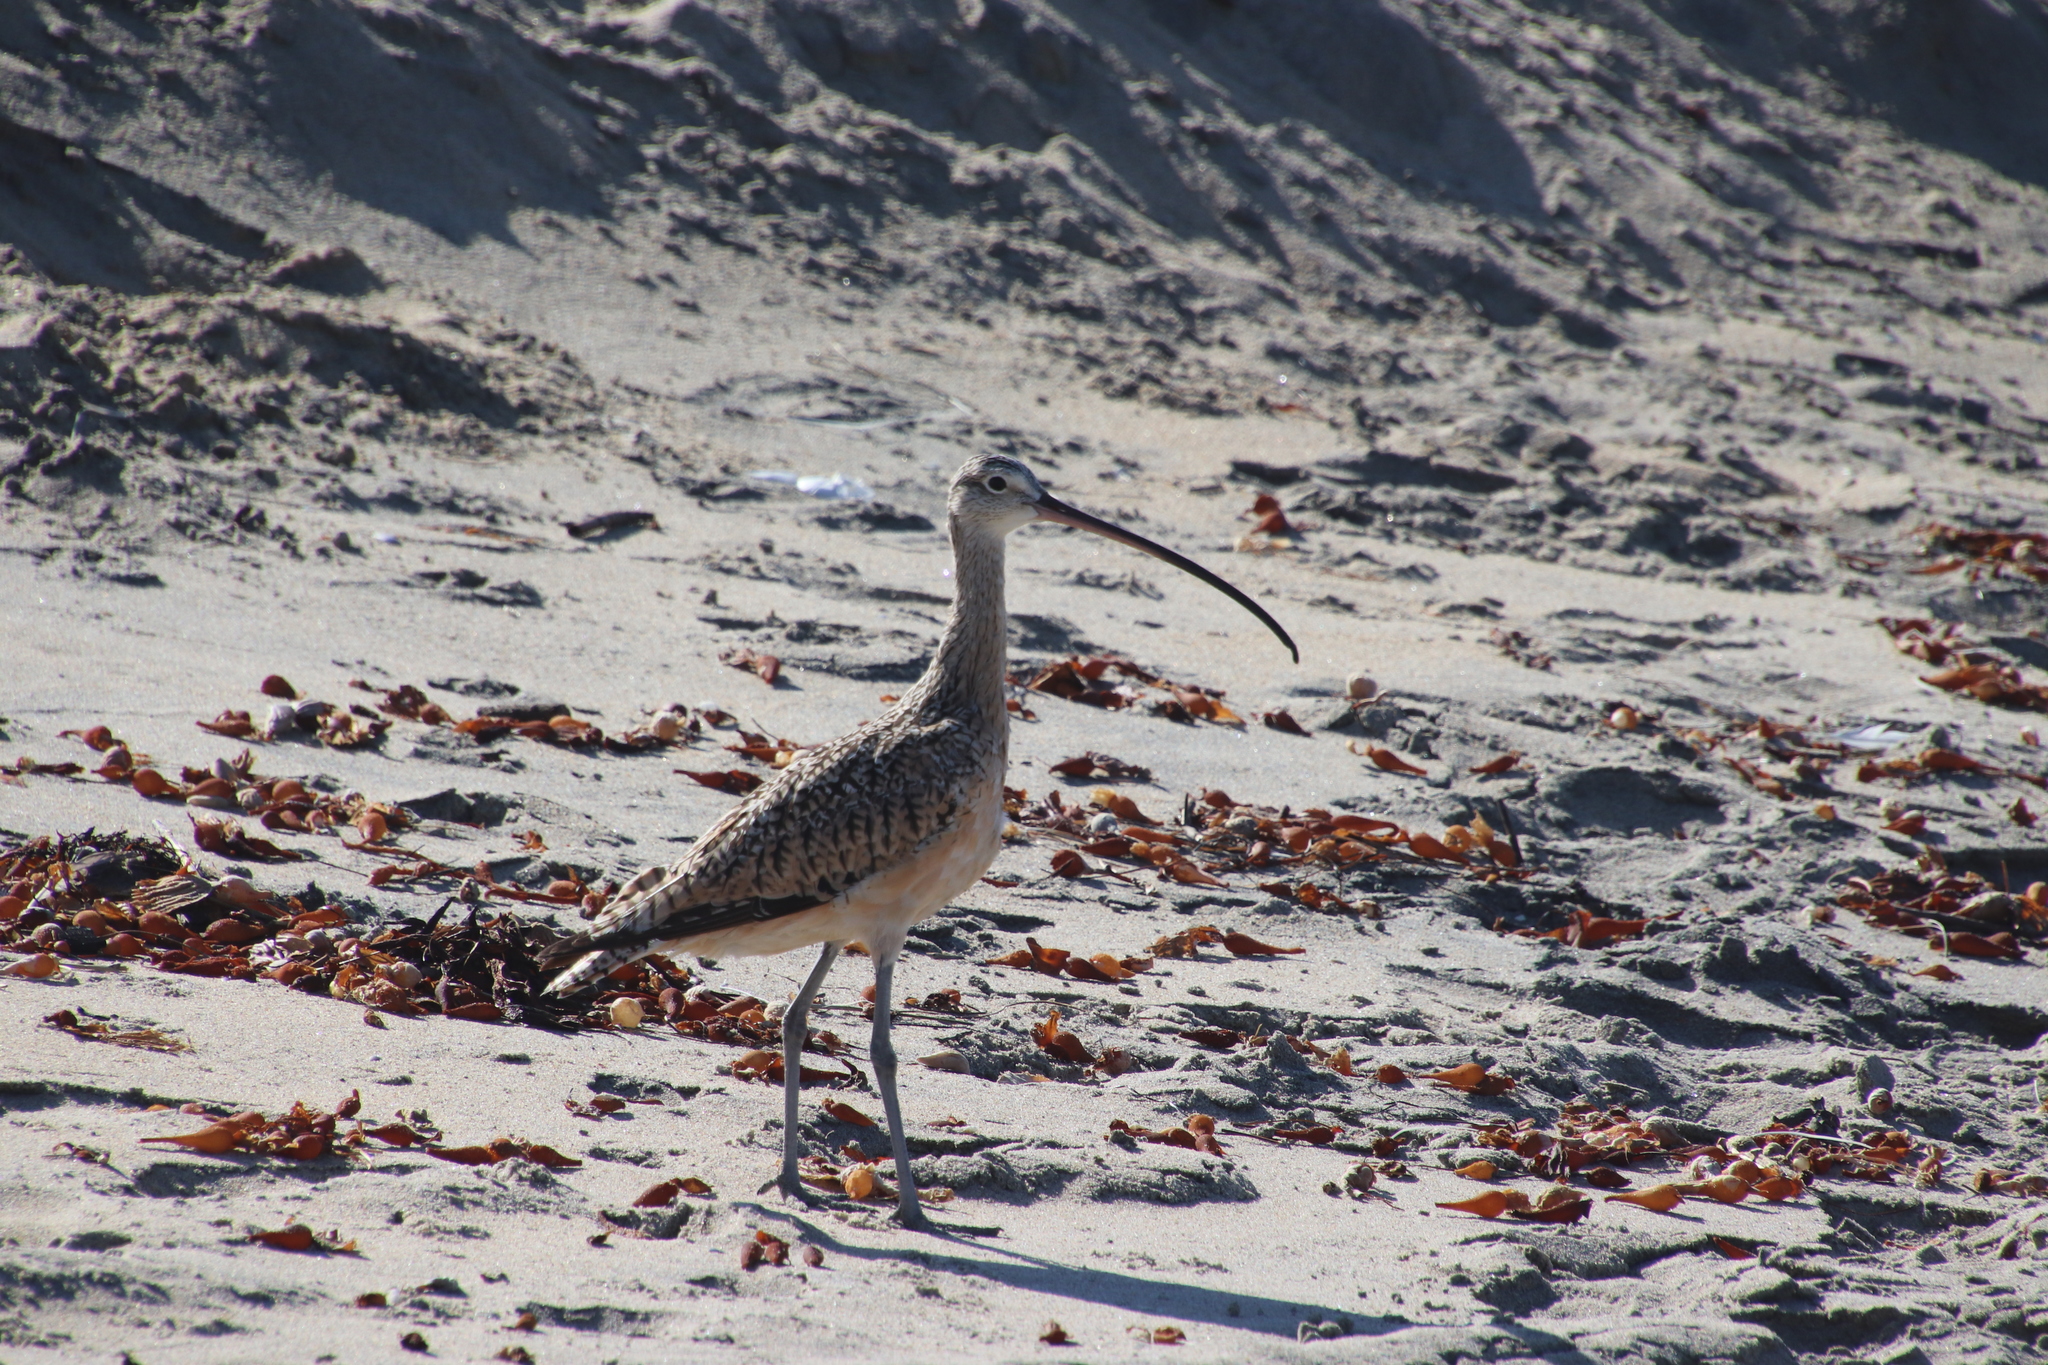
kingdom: Animalia
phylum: Chordata
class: Aves
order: Charadriiformes
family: Scolopacidae
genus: Numenius
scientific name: Numenius americanus
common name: Long-billed curlew
